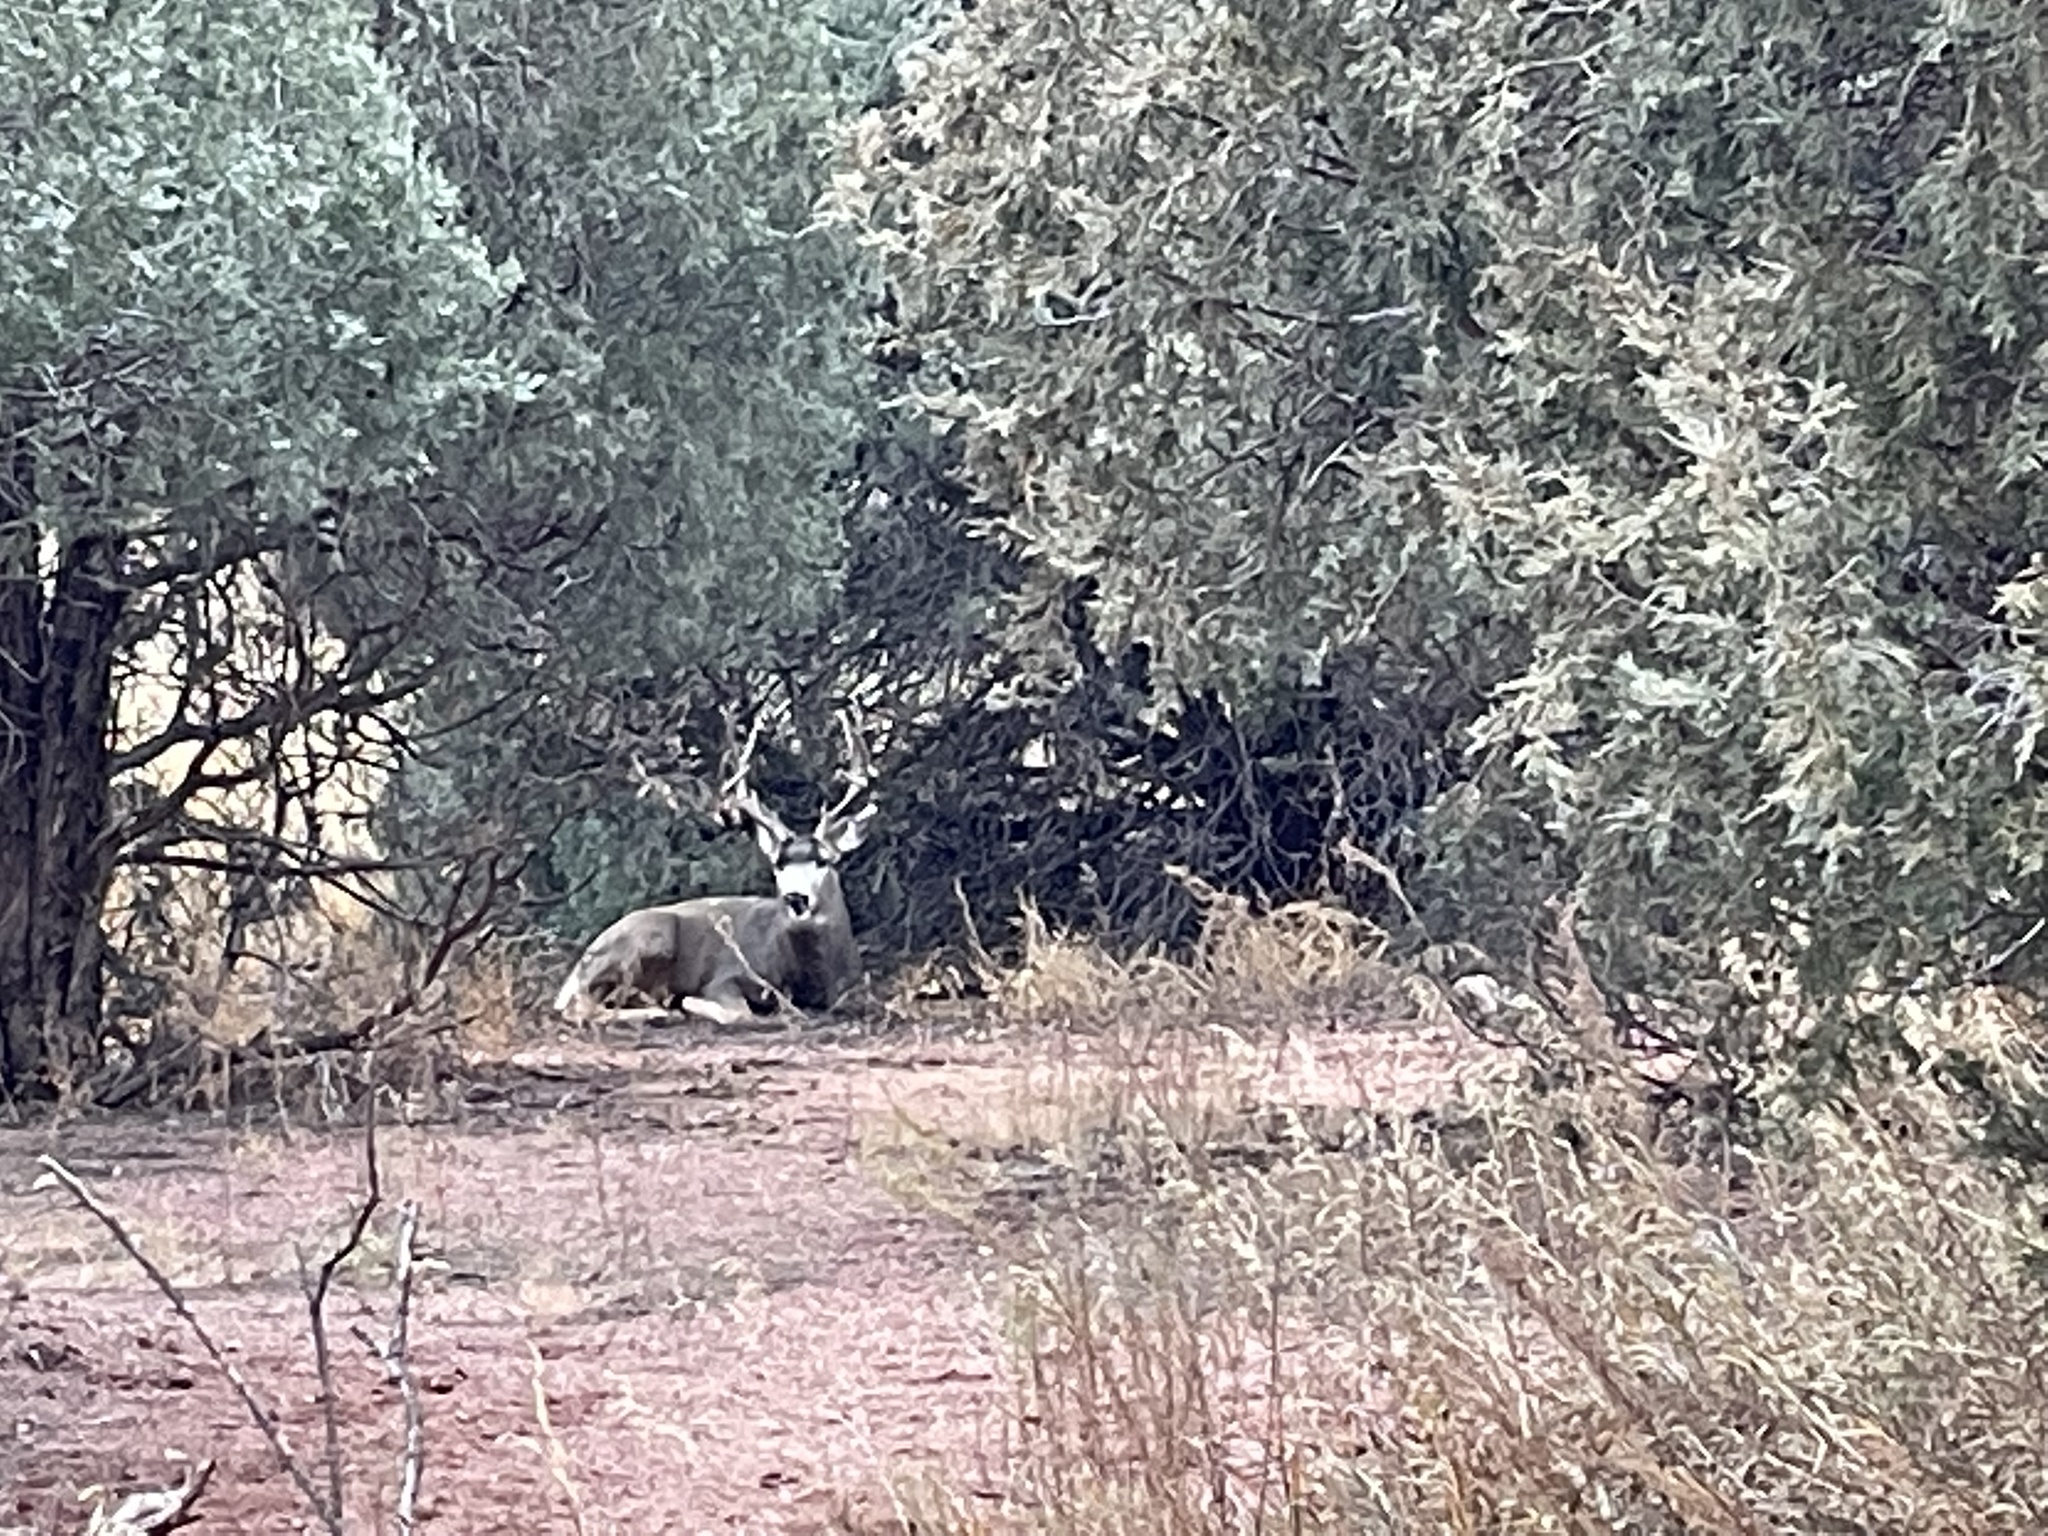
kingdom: Animalia
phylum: Chordata
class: Mammalia
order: Artiodactyla
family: Cervidae
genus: Odocoileus
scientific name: Odocoileus hemionus
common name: Mule deer
